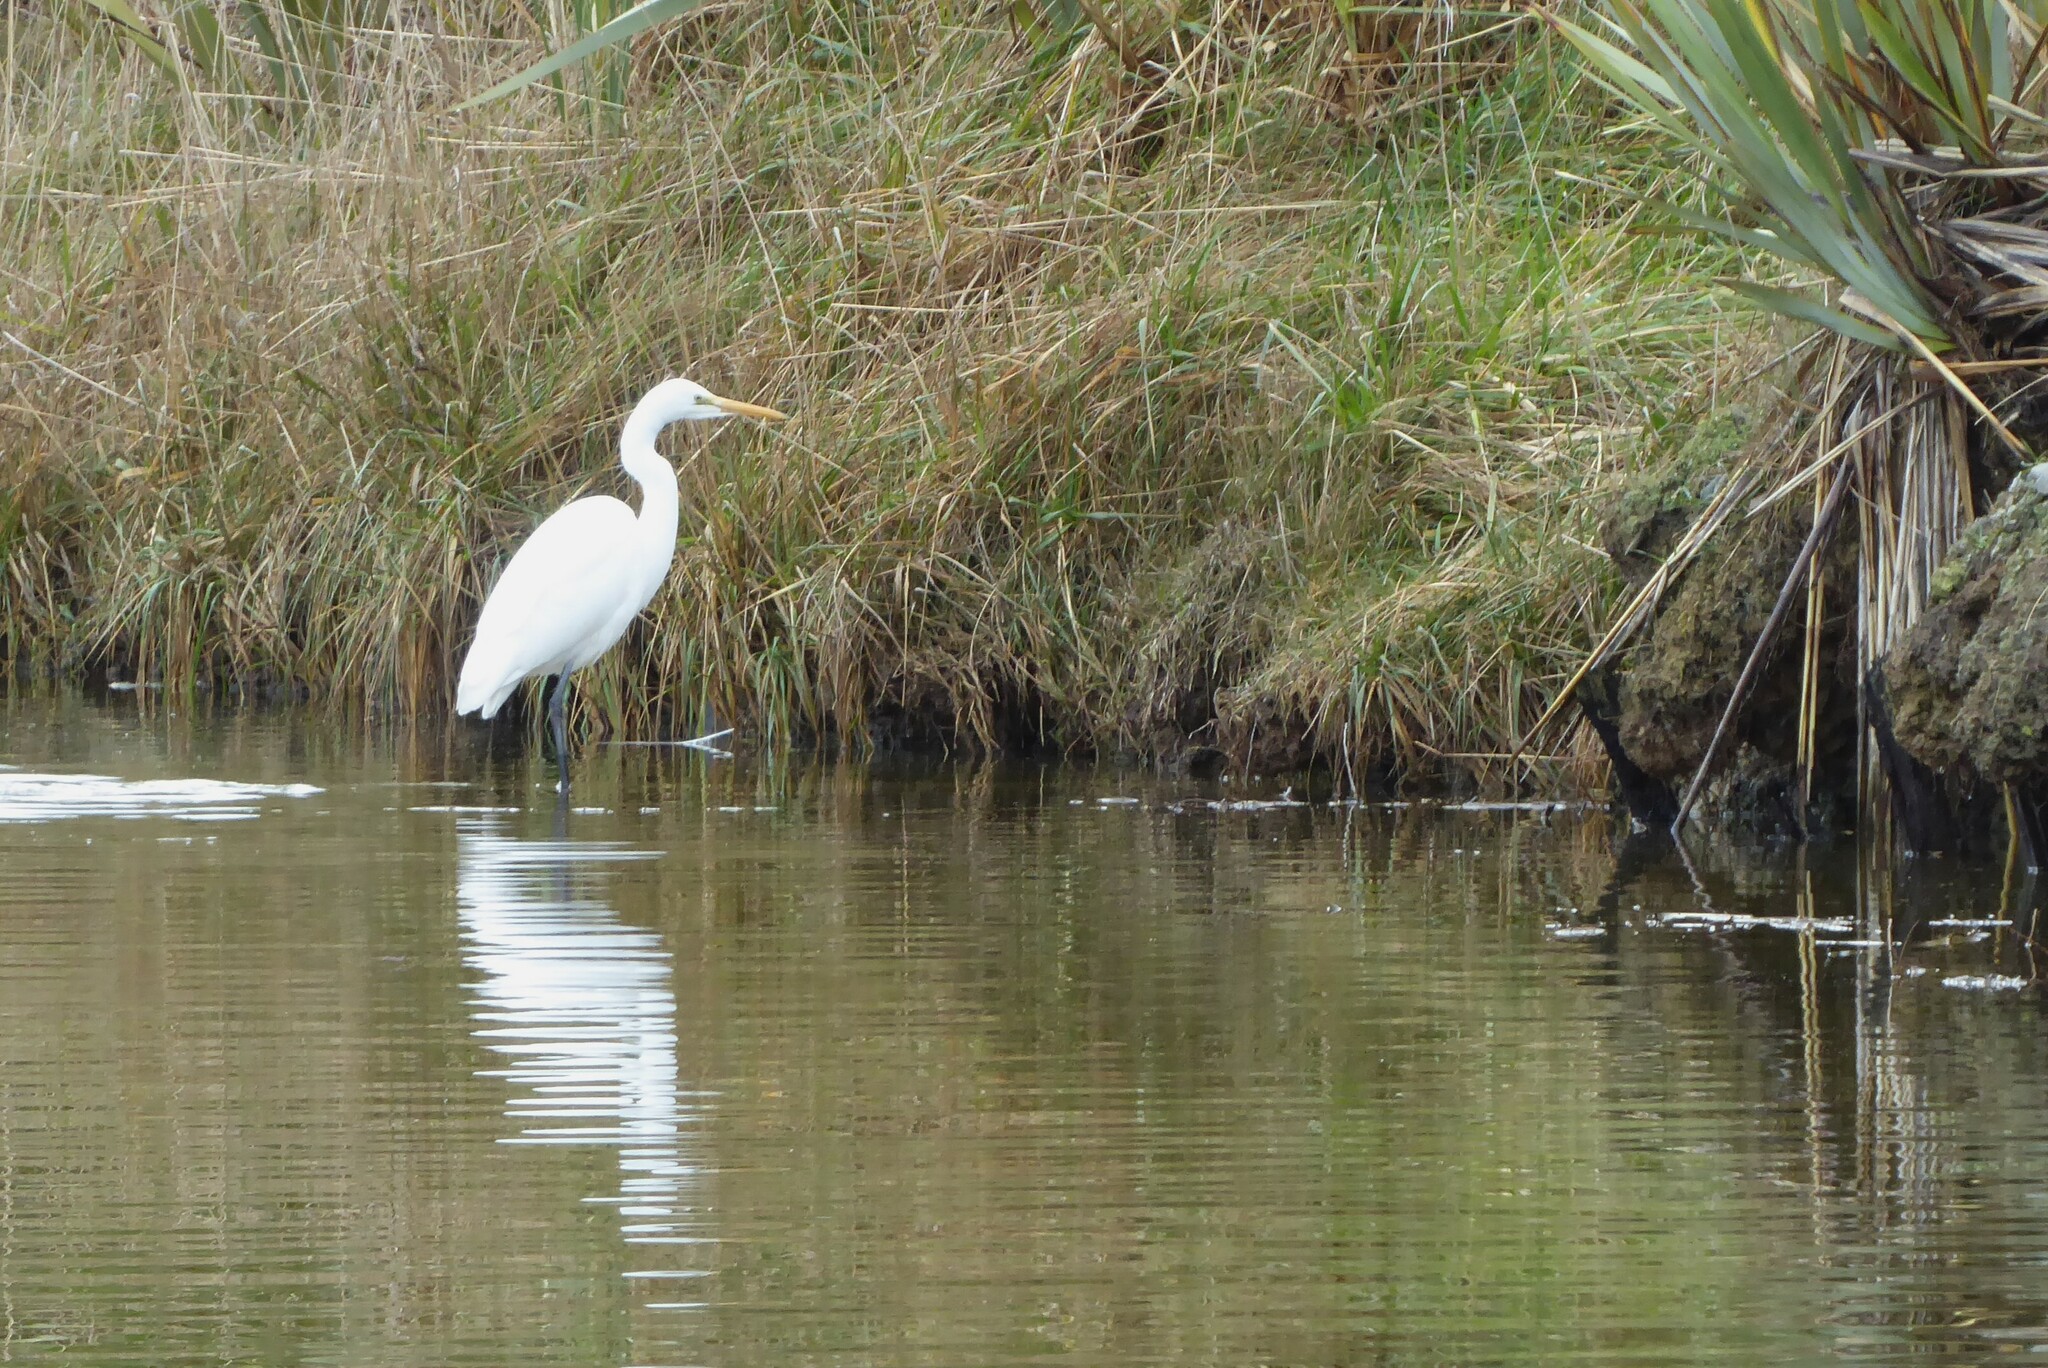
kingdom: Animalia
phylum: Chordata
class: Aves
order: Pelecaniformes
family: Ardeidae
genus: Ardea
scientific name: Ardea modesta
